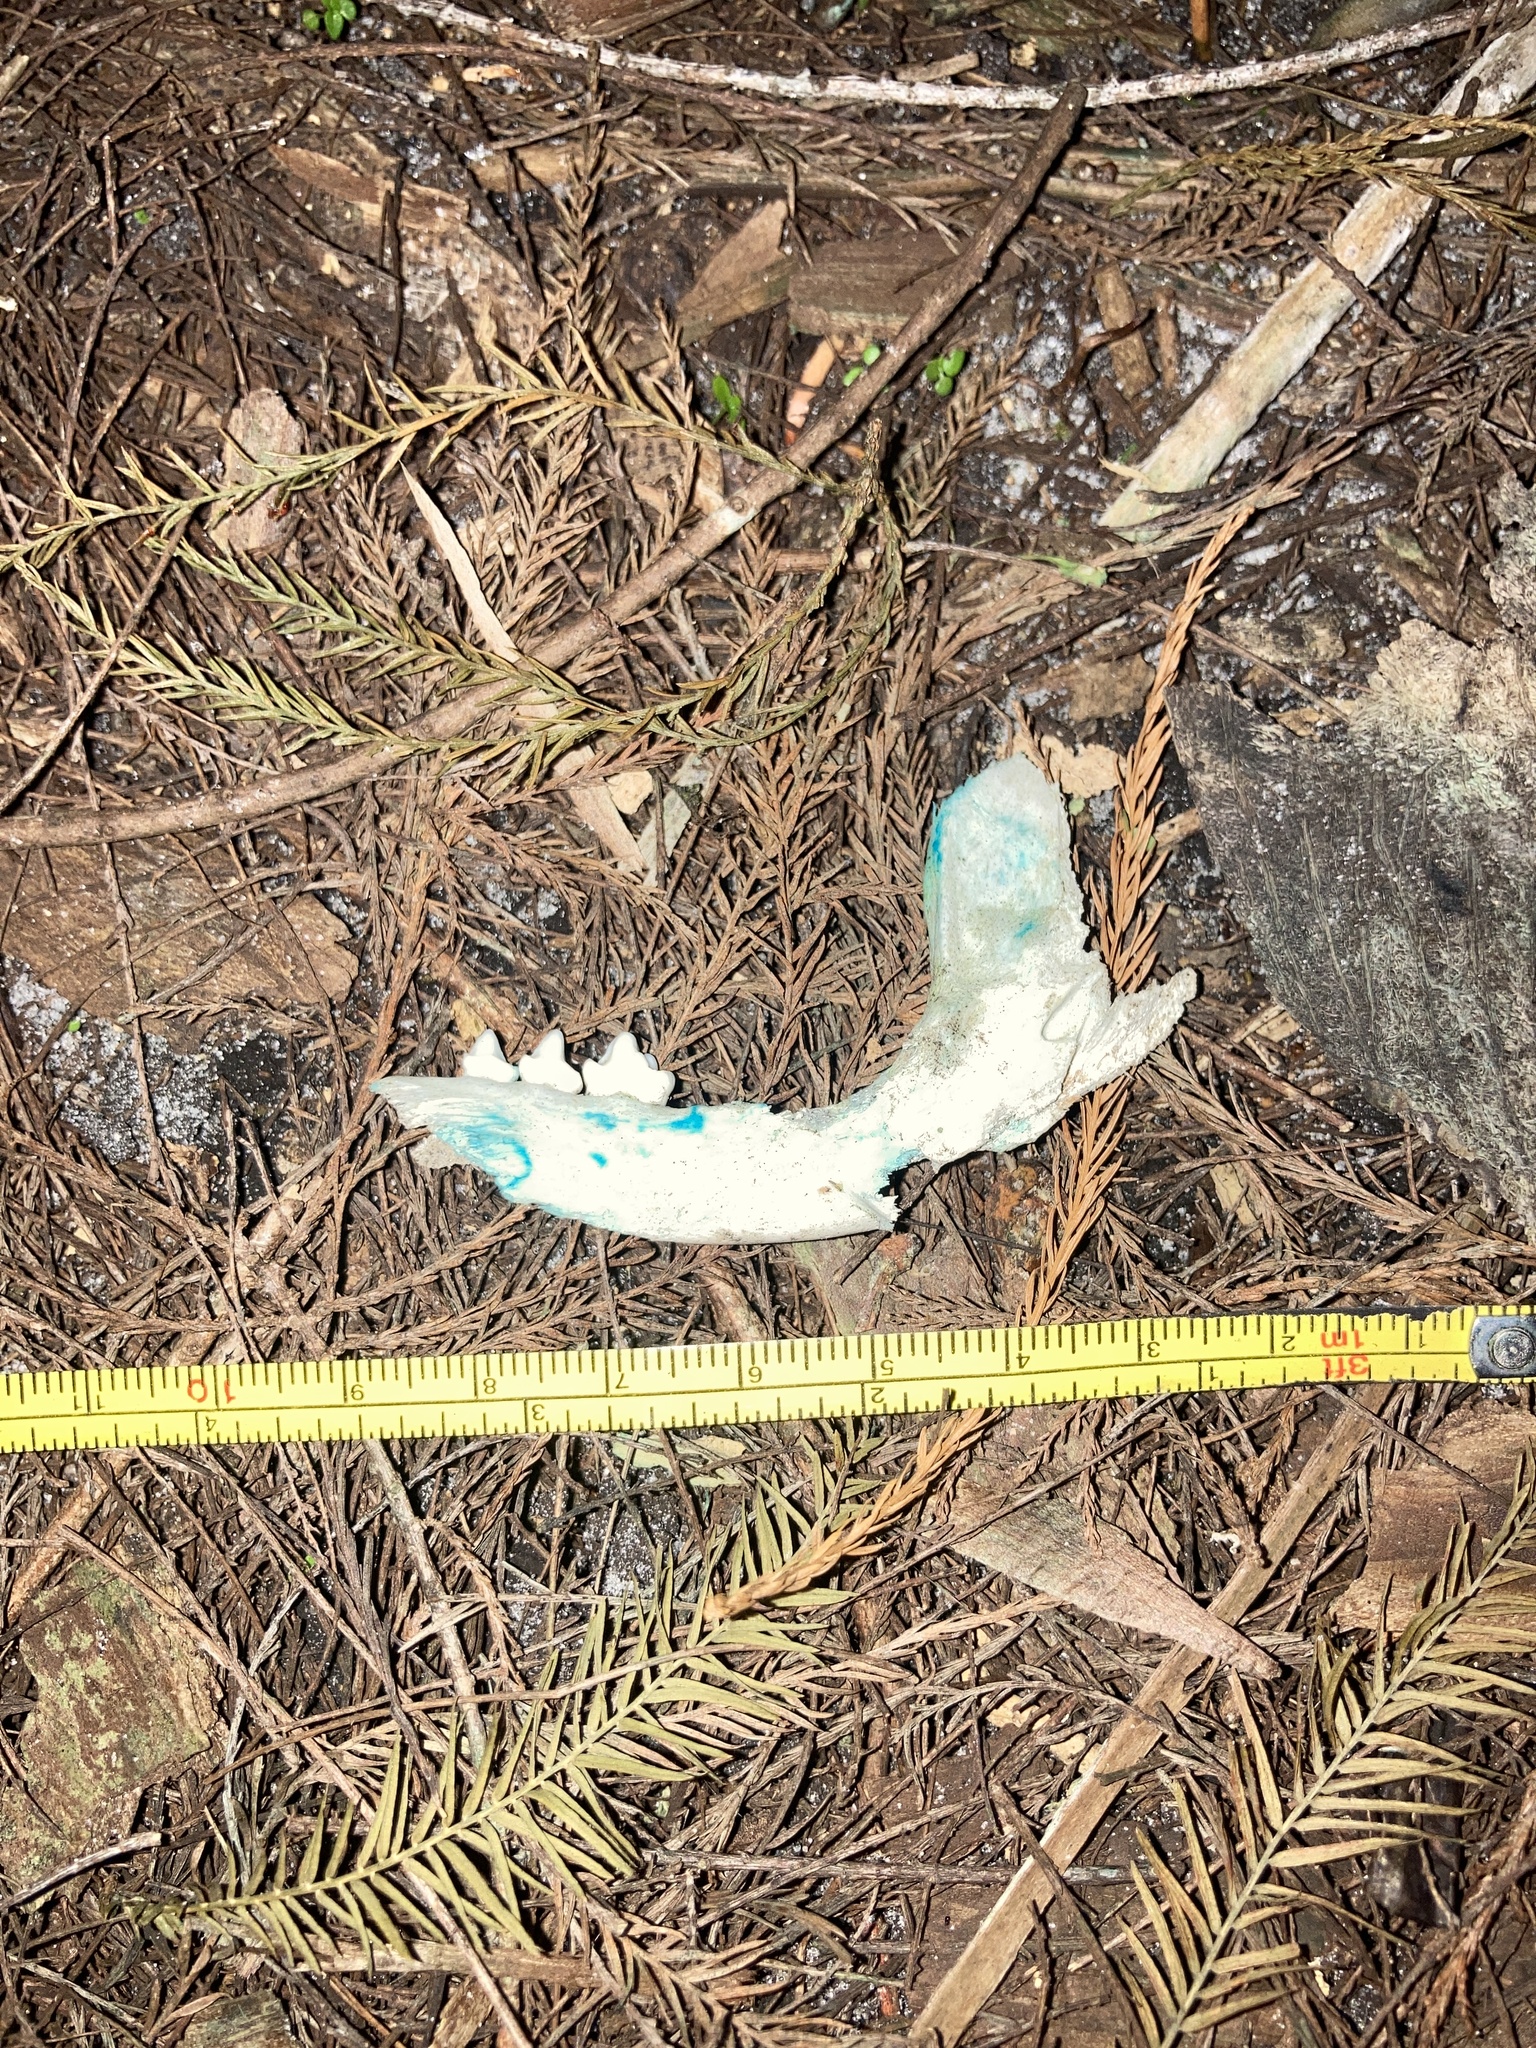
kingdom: Animalia
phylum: Chordata
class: Mammalia
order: Carnivora
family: Procyonidae
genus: Procyon
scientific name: Procyon lotor
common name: Raccoon
